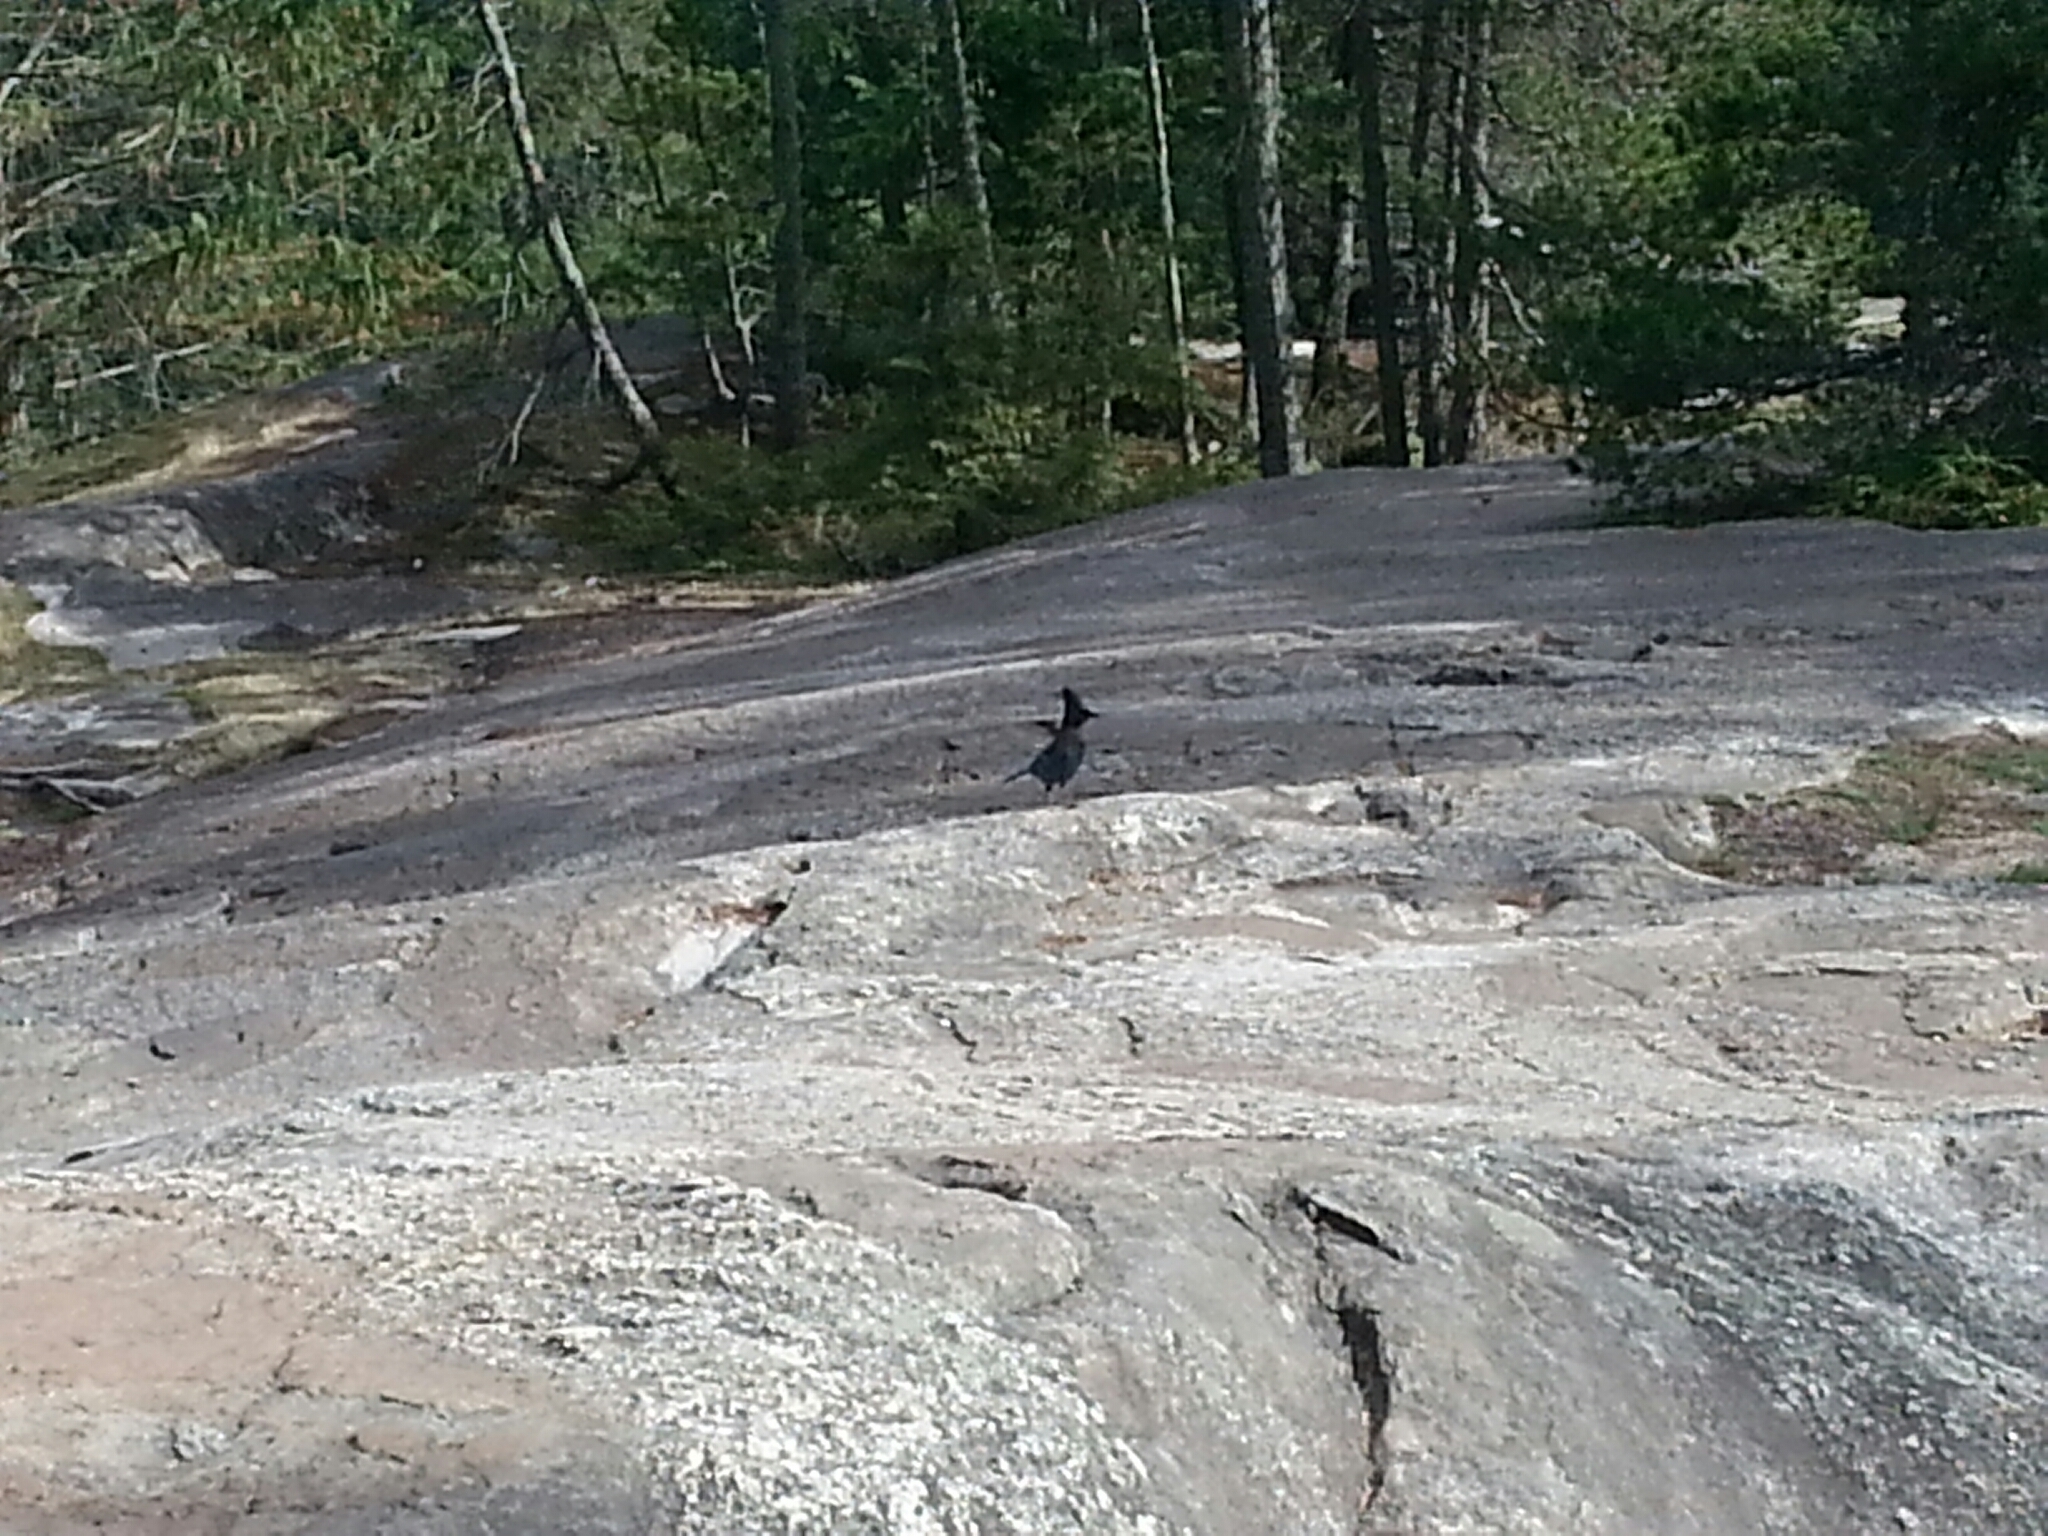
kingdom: Animalia
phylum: Chordata
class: Aves
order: Passeriformes
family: Corvidae
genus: Cyanocitta
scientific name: Cyanocitta stelleri
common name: Steller's jay
